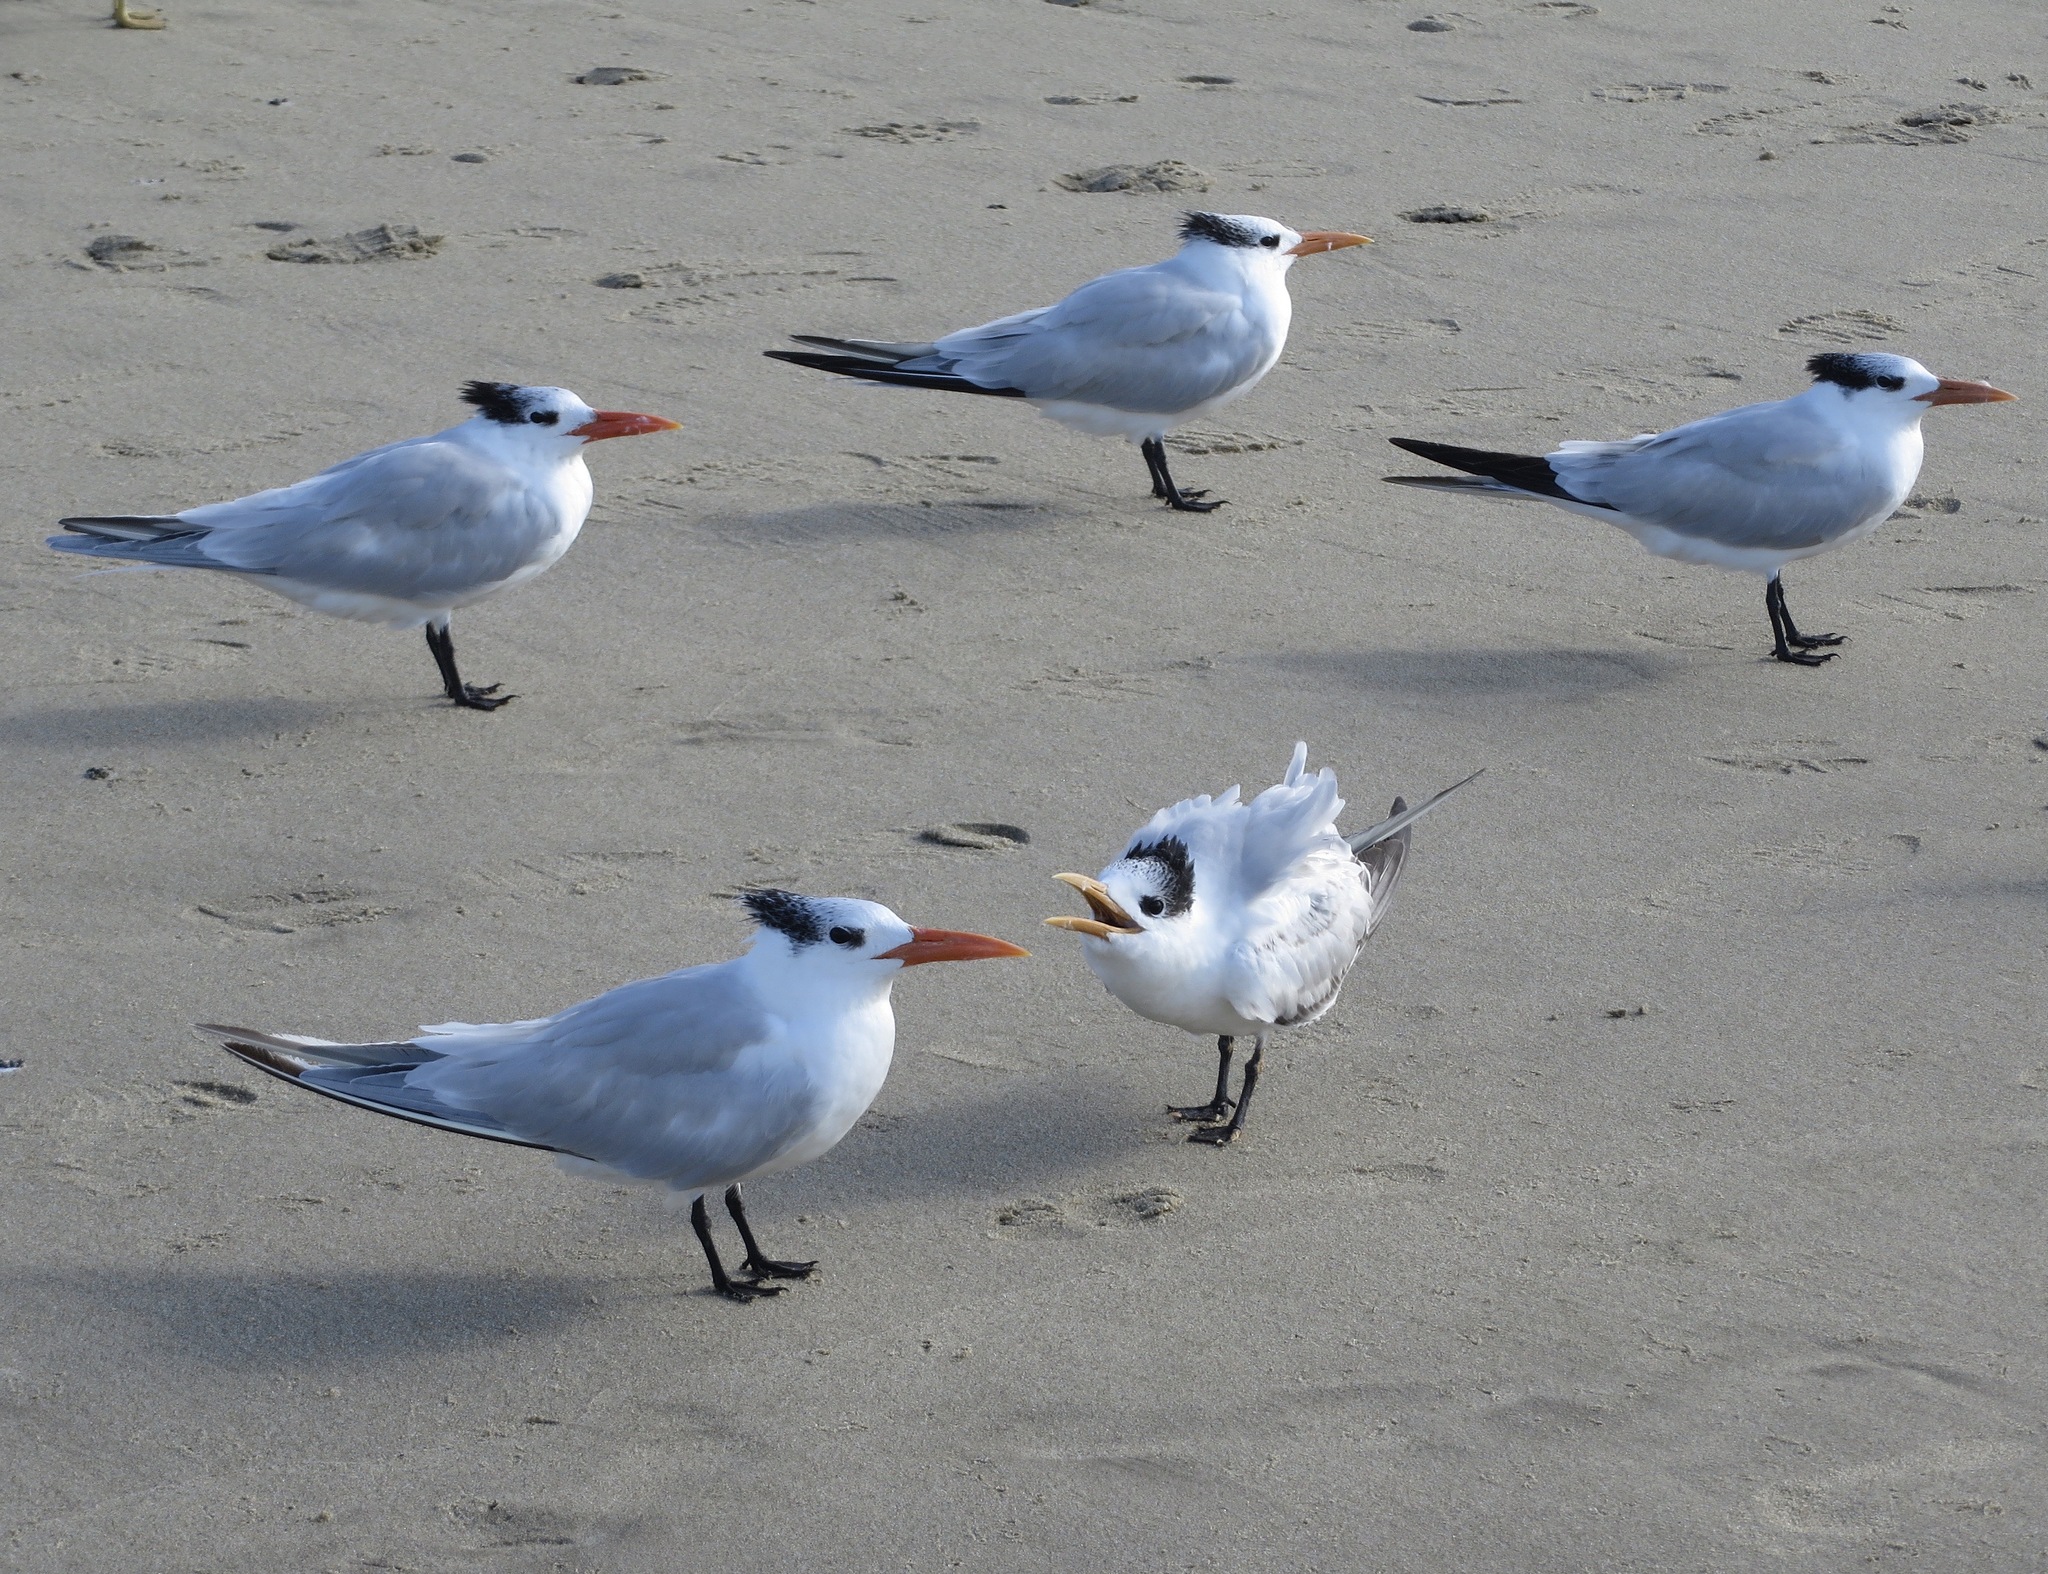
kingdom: Animalia
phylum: Chordata
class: Aves
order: Charadriiformes
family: Laridae
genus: Thalasseus
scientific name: Thalasseus maximus
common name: Royal tern
